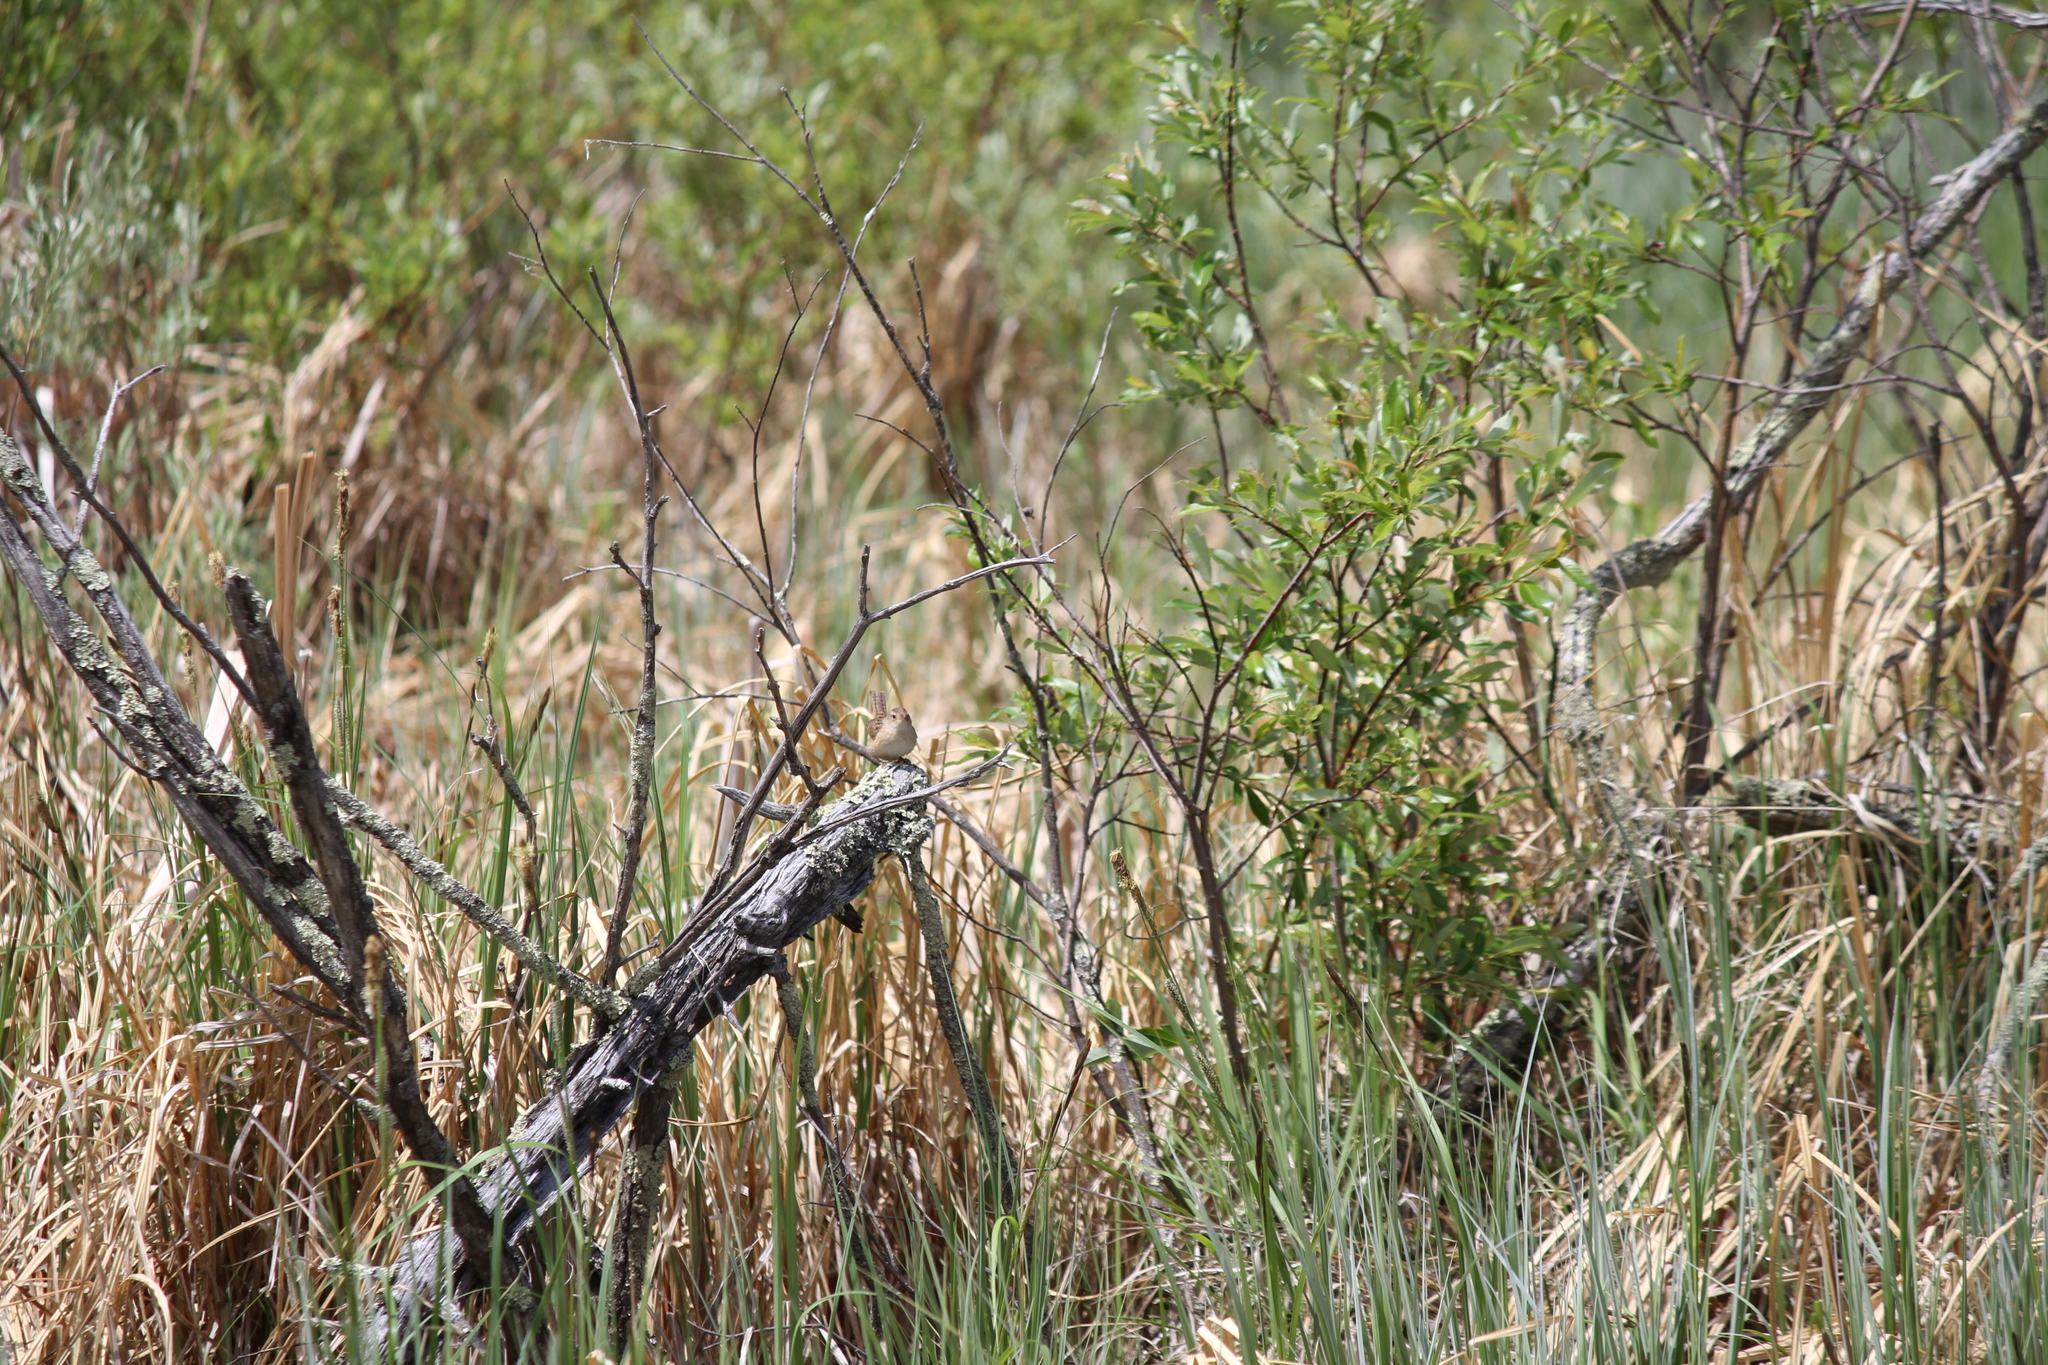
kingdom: Animalia
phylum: Chordata
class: Aves
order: Passeriformes
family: Troglodytidae
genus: Cistothorus
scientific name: Cistothorus platensis
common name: Sedge wren
